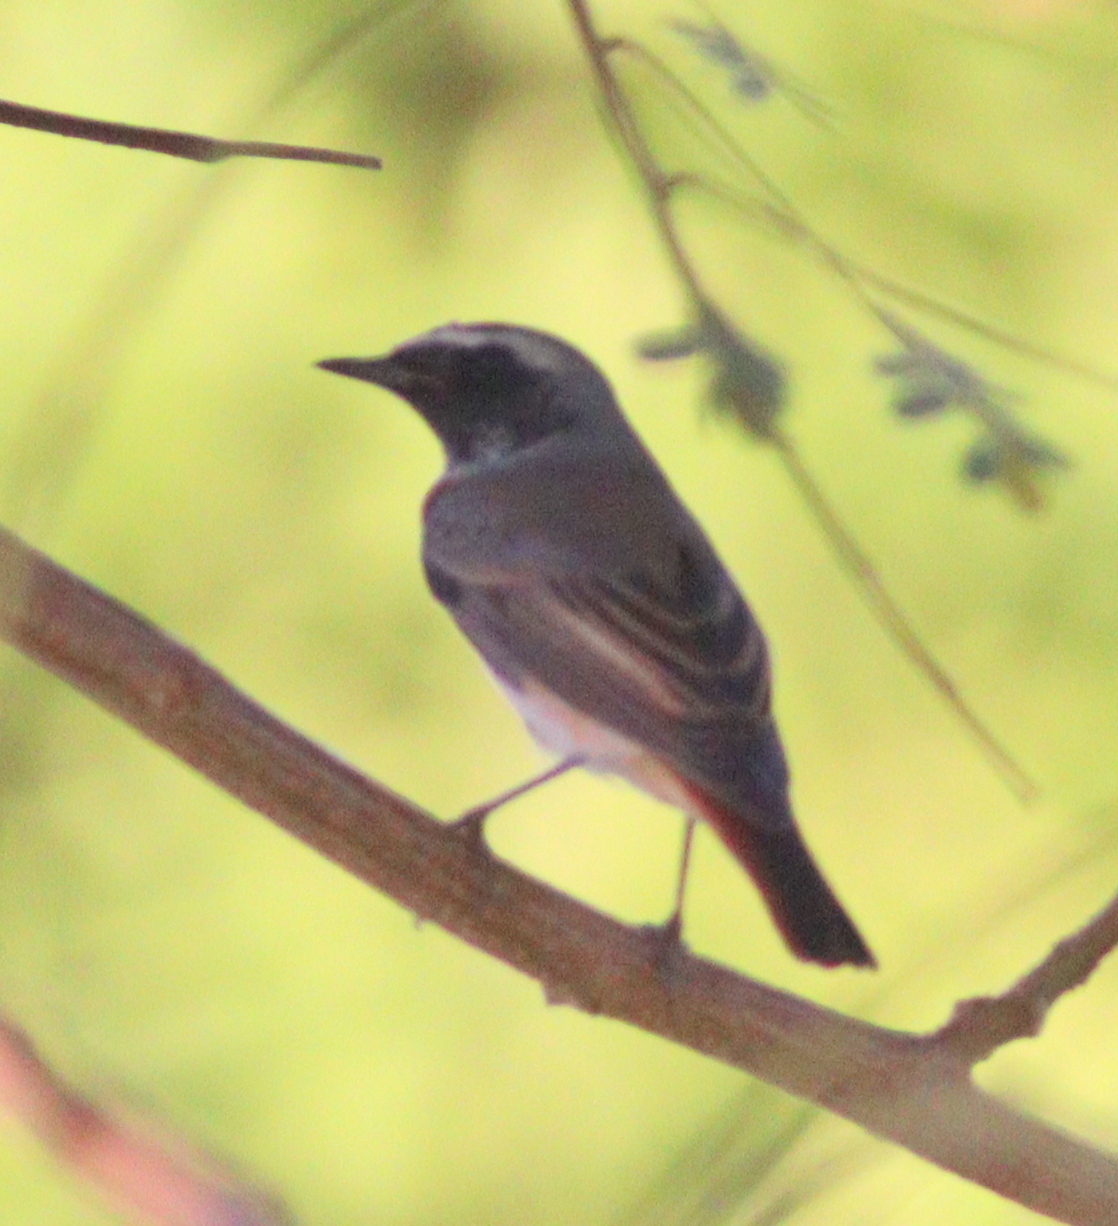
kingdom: Animalia
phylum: Chordata
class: Aves
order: Passeriformes
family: Muscicapidae
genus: Phoenicurus
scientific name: Phoenicurus phoenicurus
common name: Common redstart
